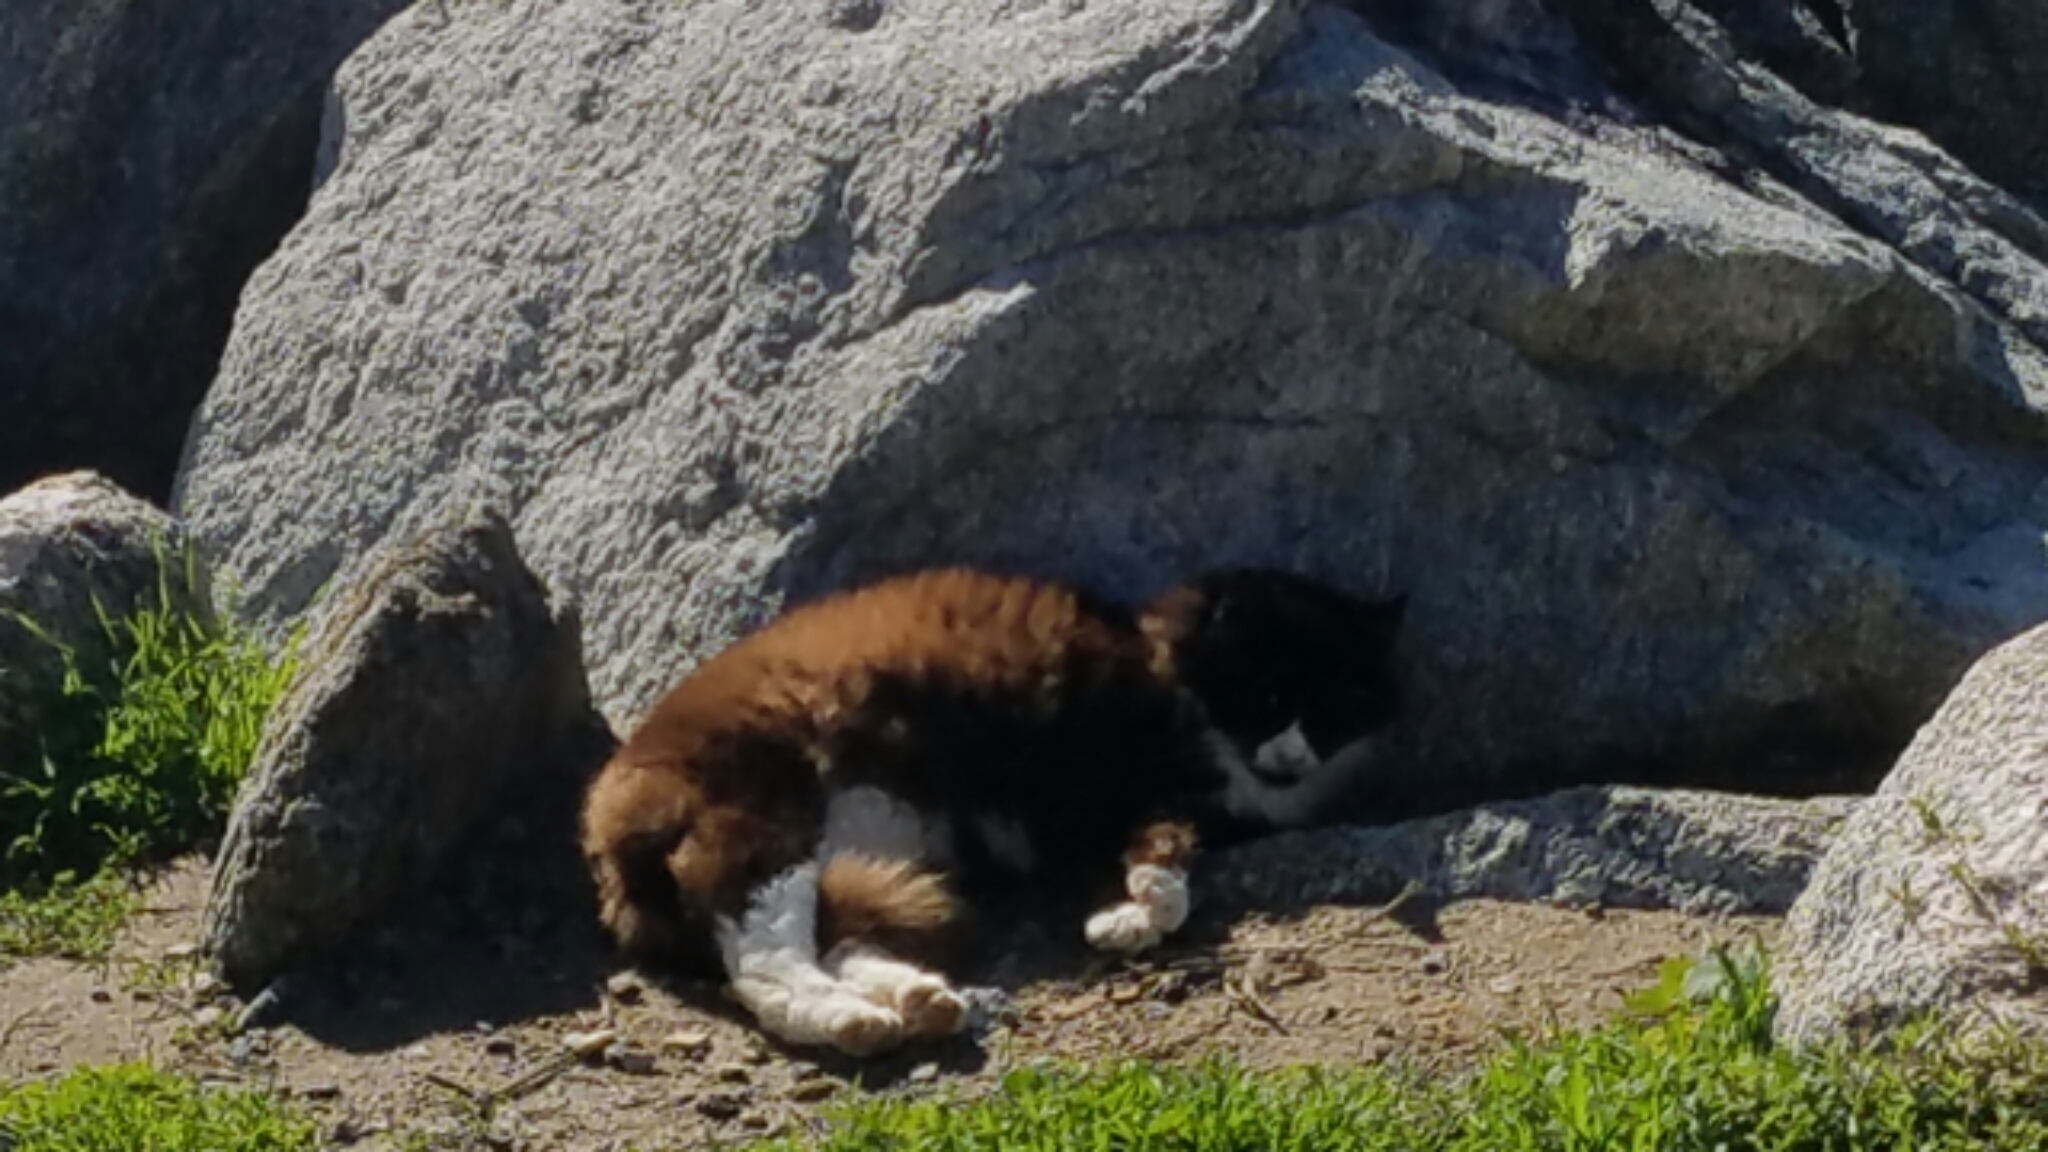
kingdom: Animalia
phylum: Chordata
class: Mammalia
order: Carnivora
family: Felidae
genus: Felis
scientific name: Felis catus
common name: Domestic cat
